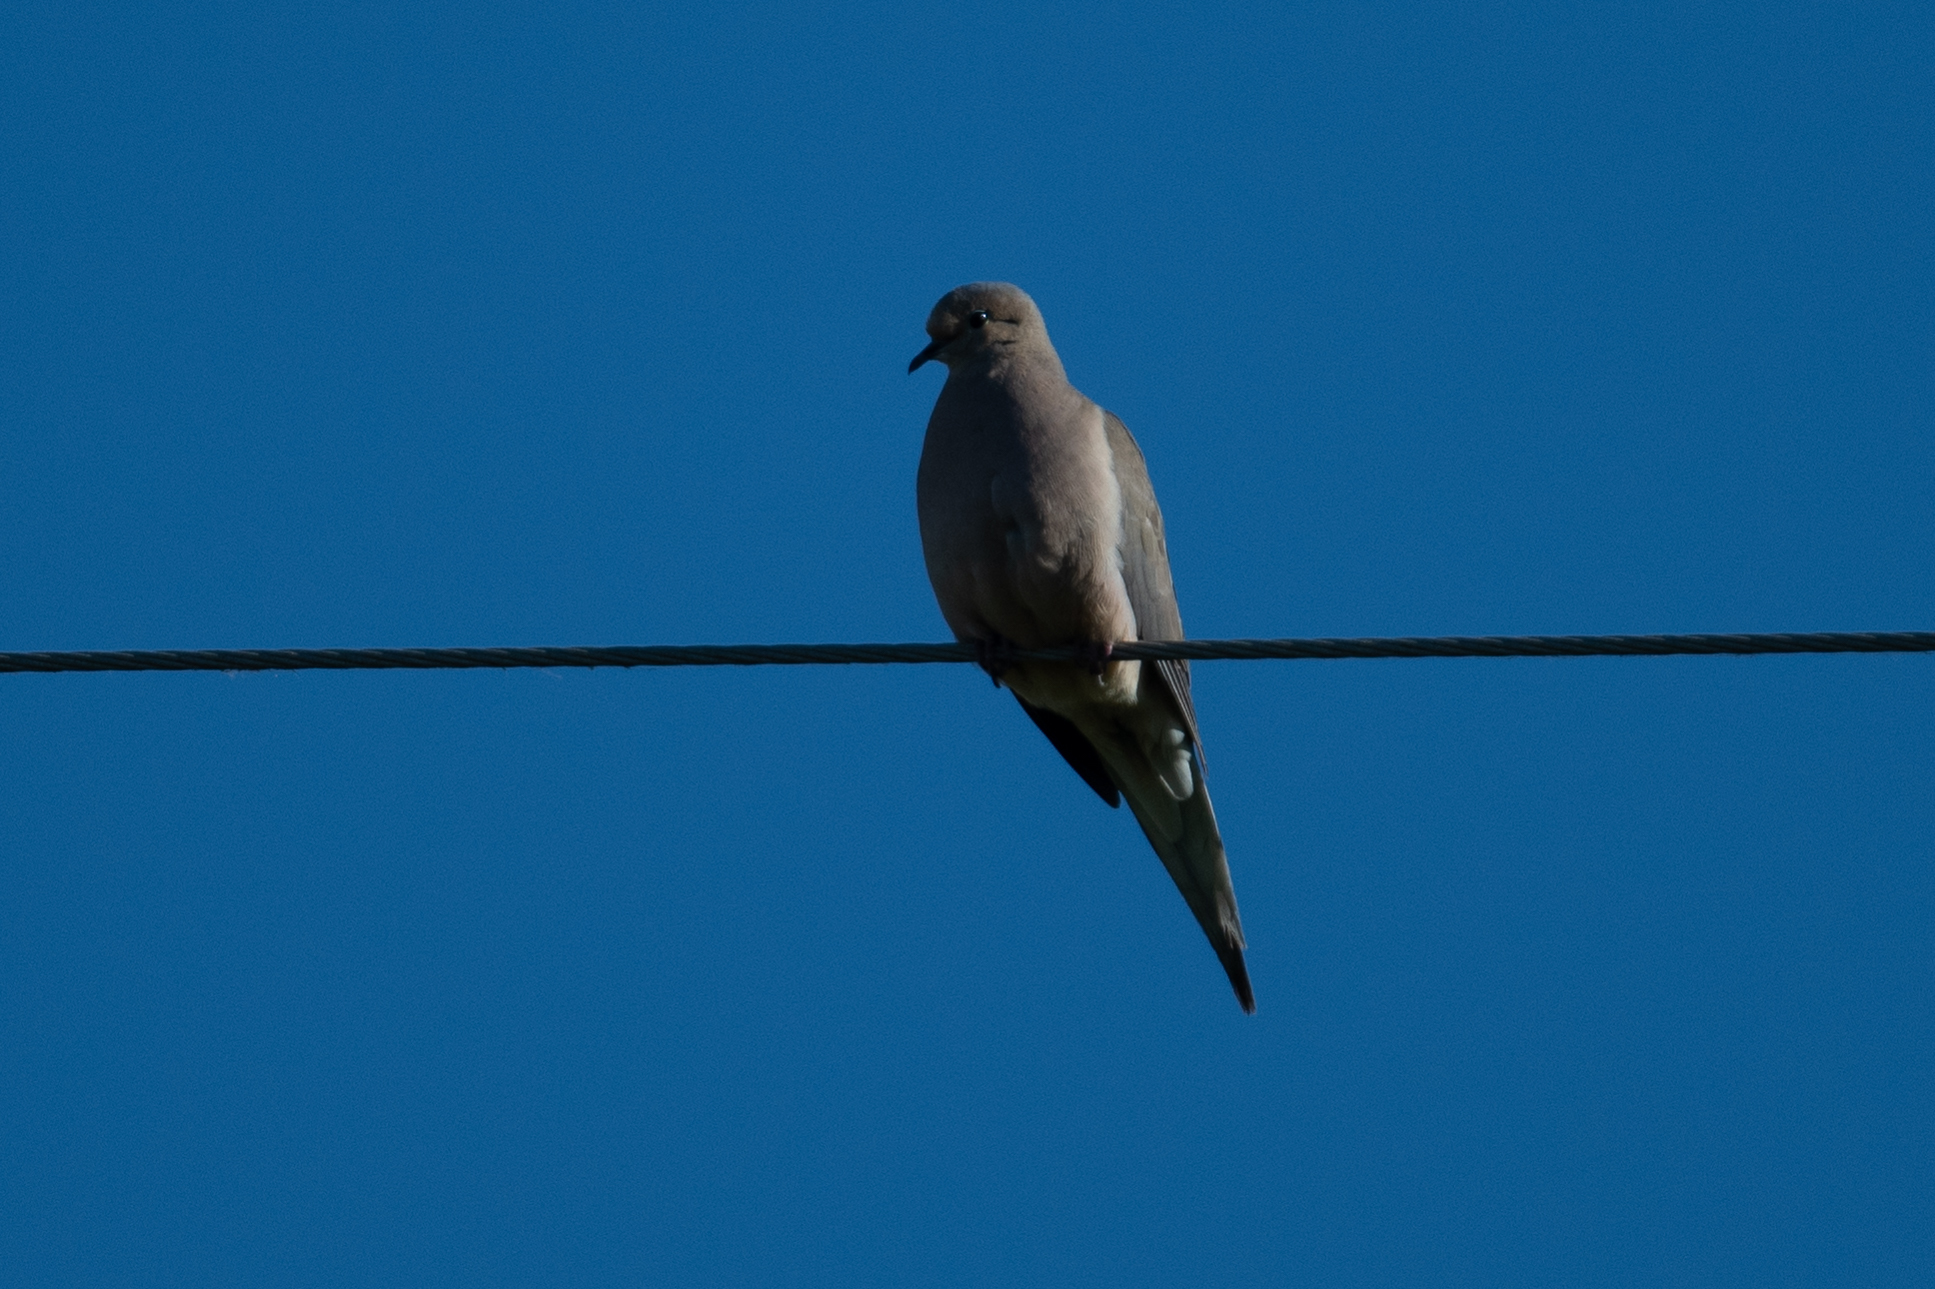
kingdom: Animalia
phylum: Chordata
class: Aves
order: Columbiformes
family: Columbidae
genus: Zenaida
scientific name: Zenaida macroura
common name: Mourning dove
